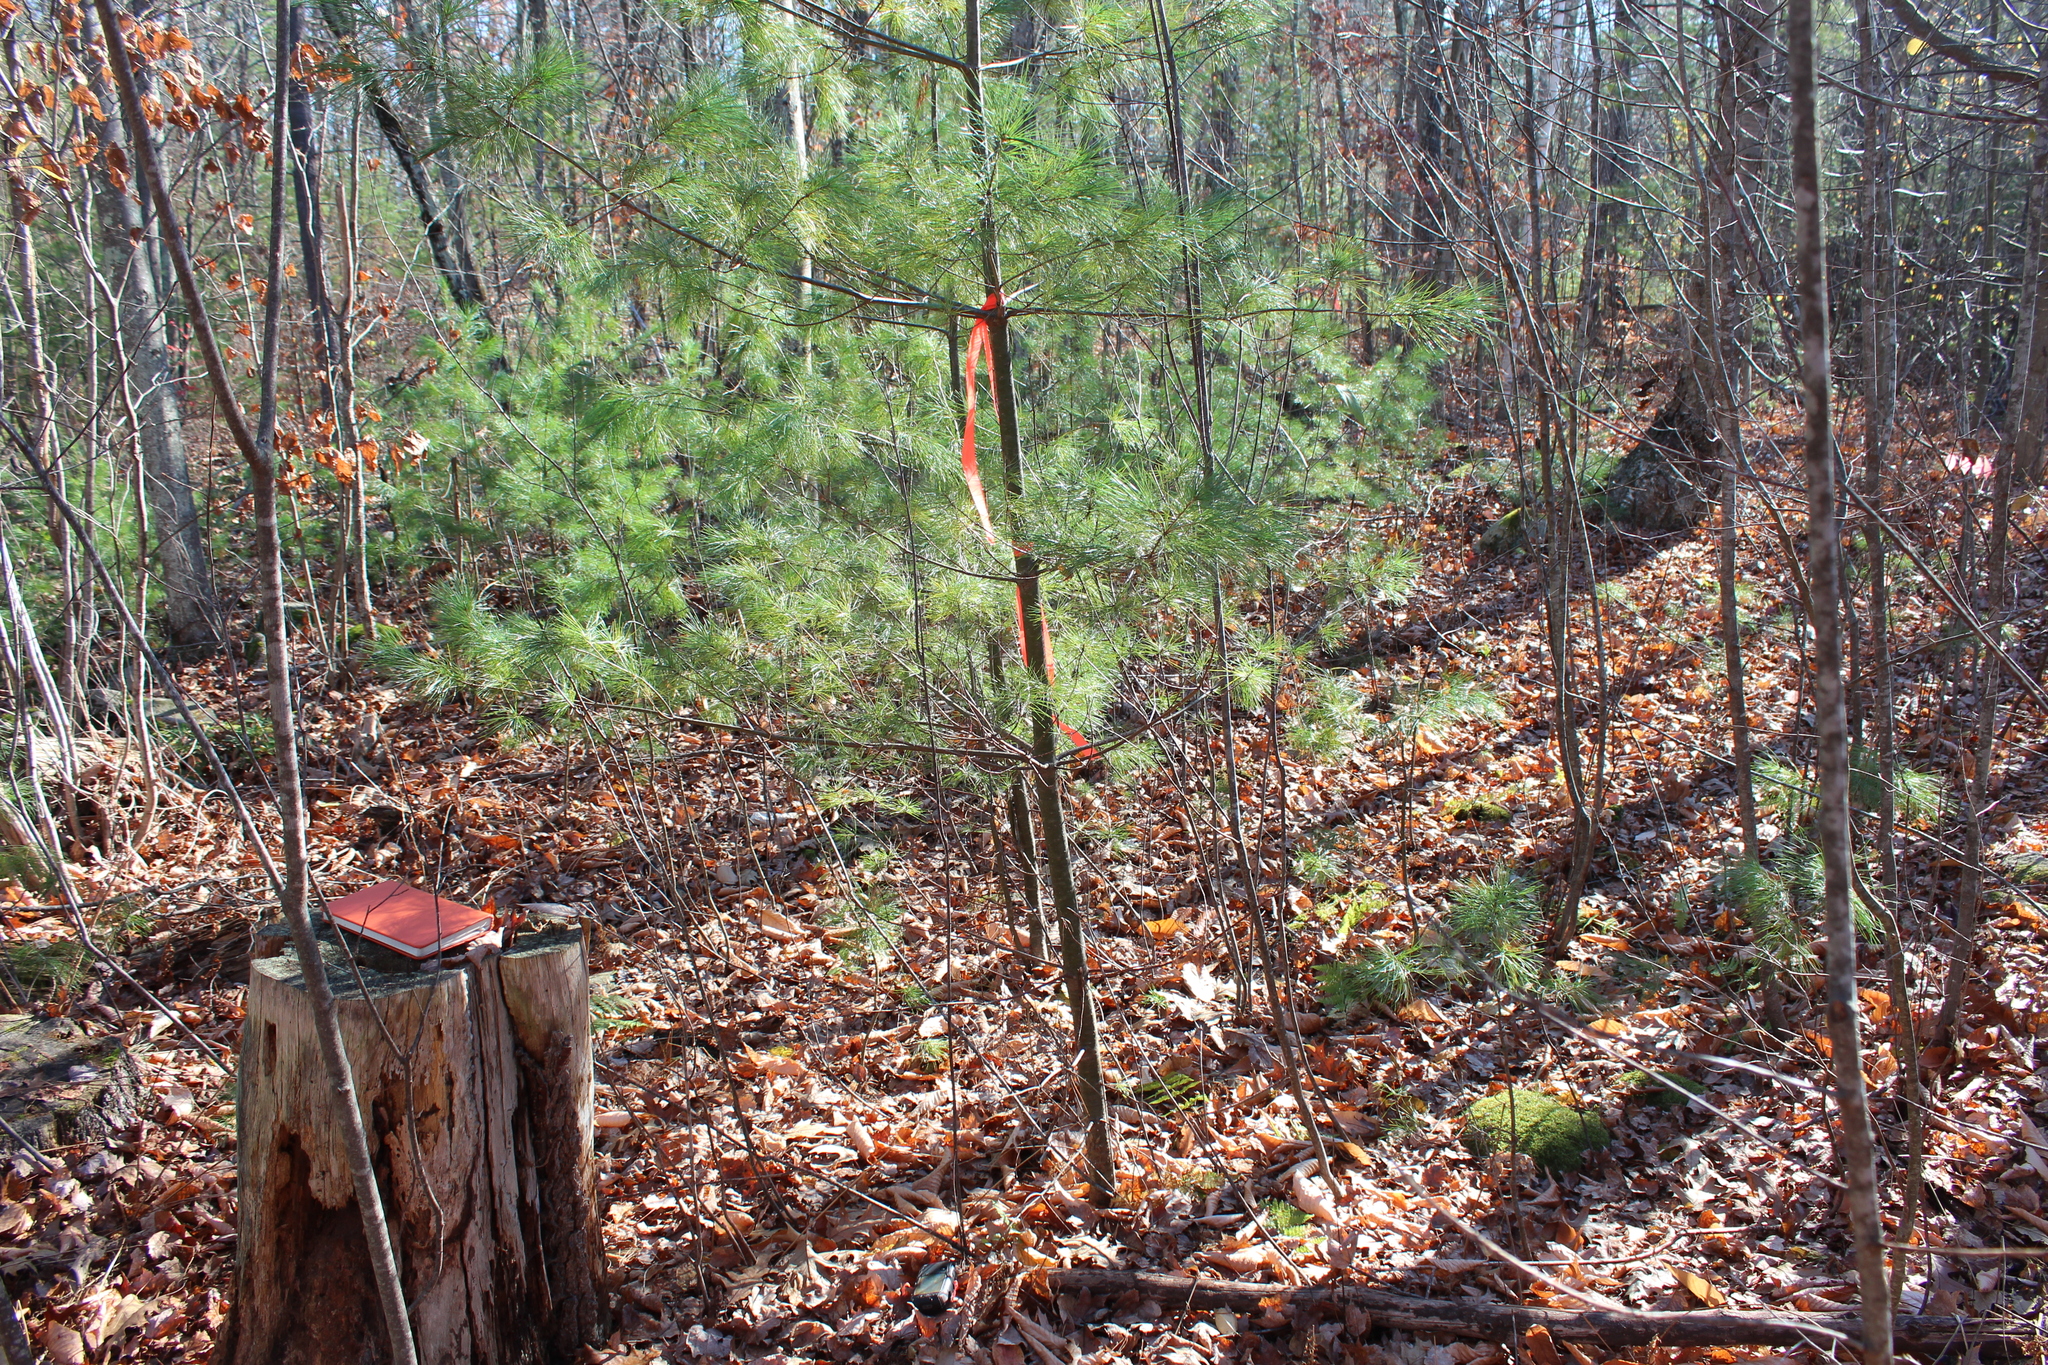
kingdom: Plantae
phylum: Tracheophyta
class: Pinopsida
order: Pinales
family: Pinaceae
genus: Pinus
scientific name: Pinus strobus
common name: Weymouth pine
